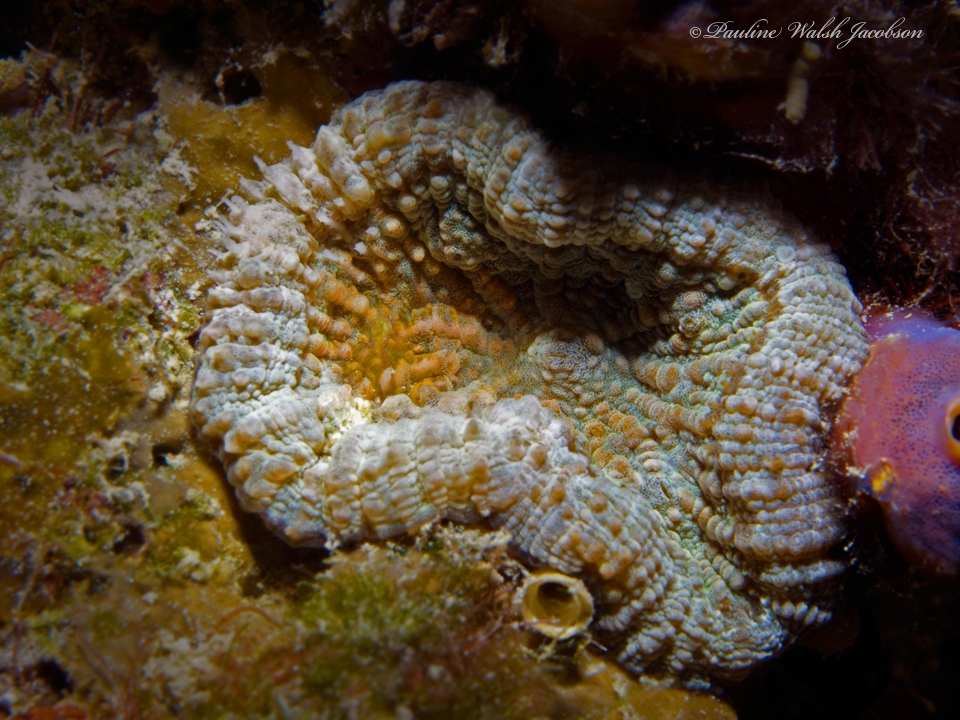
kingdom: Animalia
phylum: Cnidaria
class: Anthozoa
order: Scleractinia
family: Faviidae
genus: Scolymia
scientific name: Scolymia cubensis
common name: Artichoke coral
